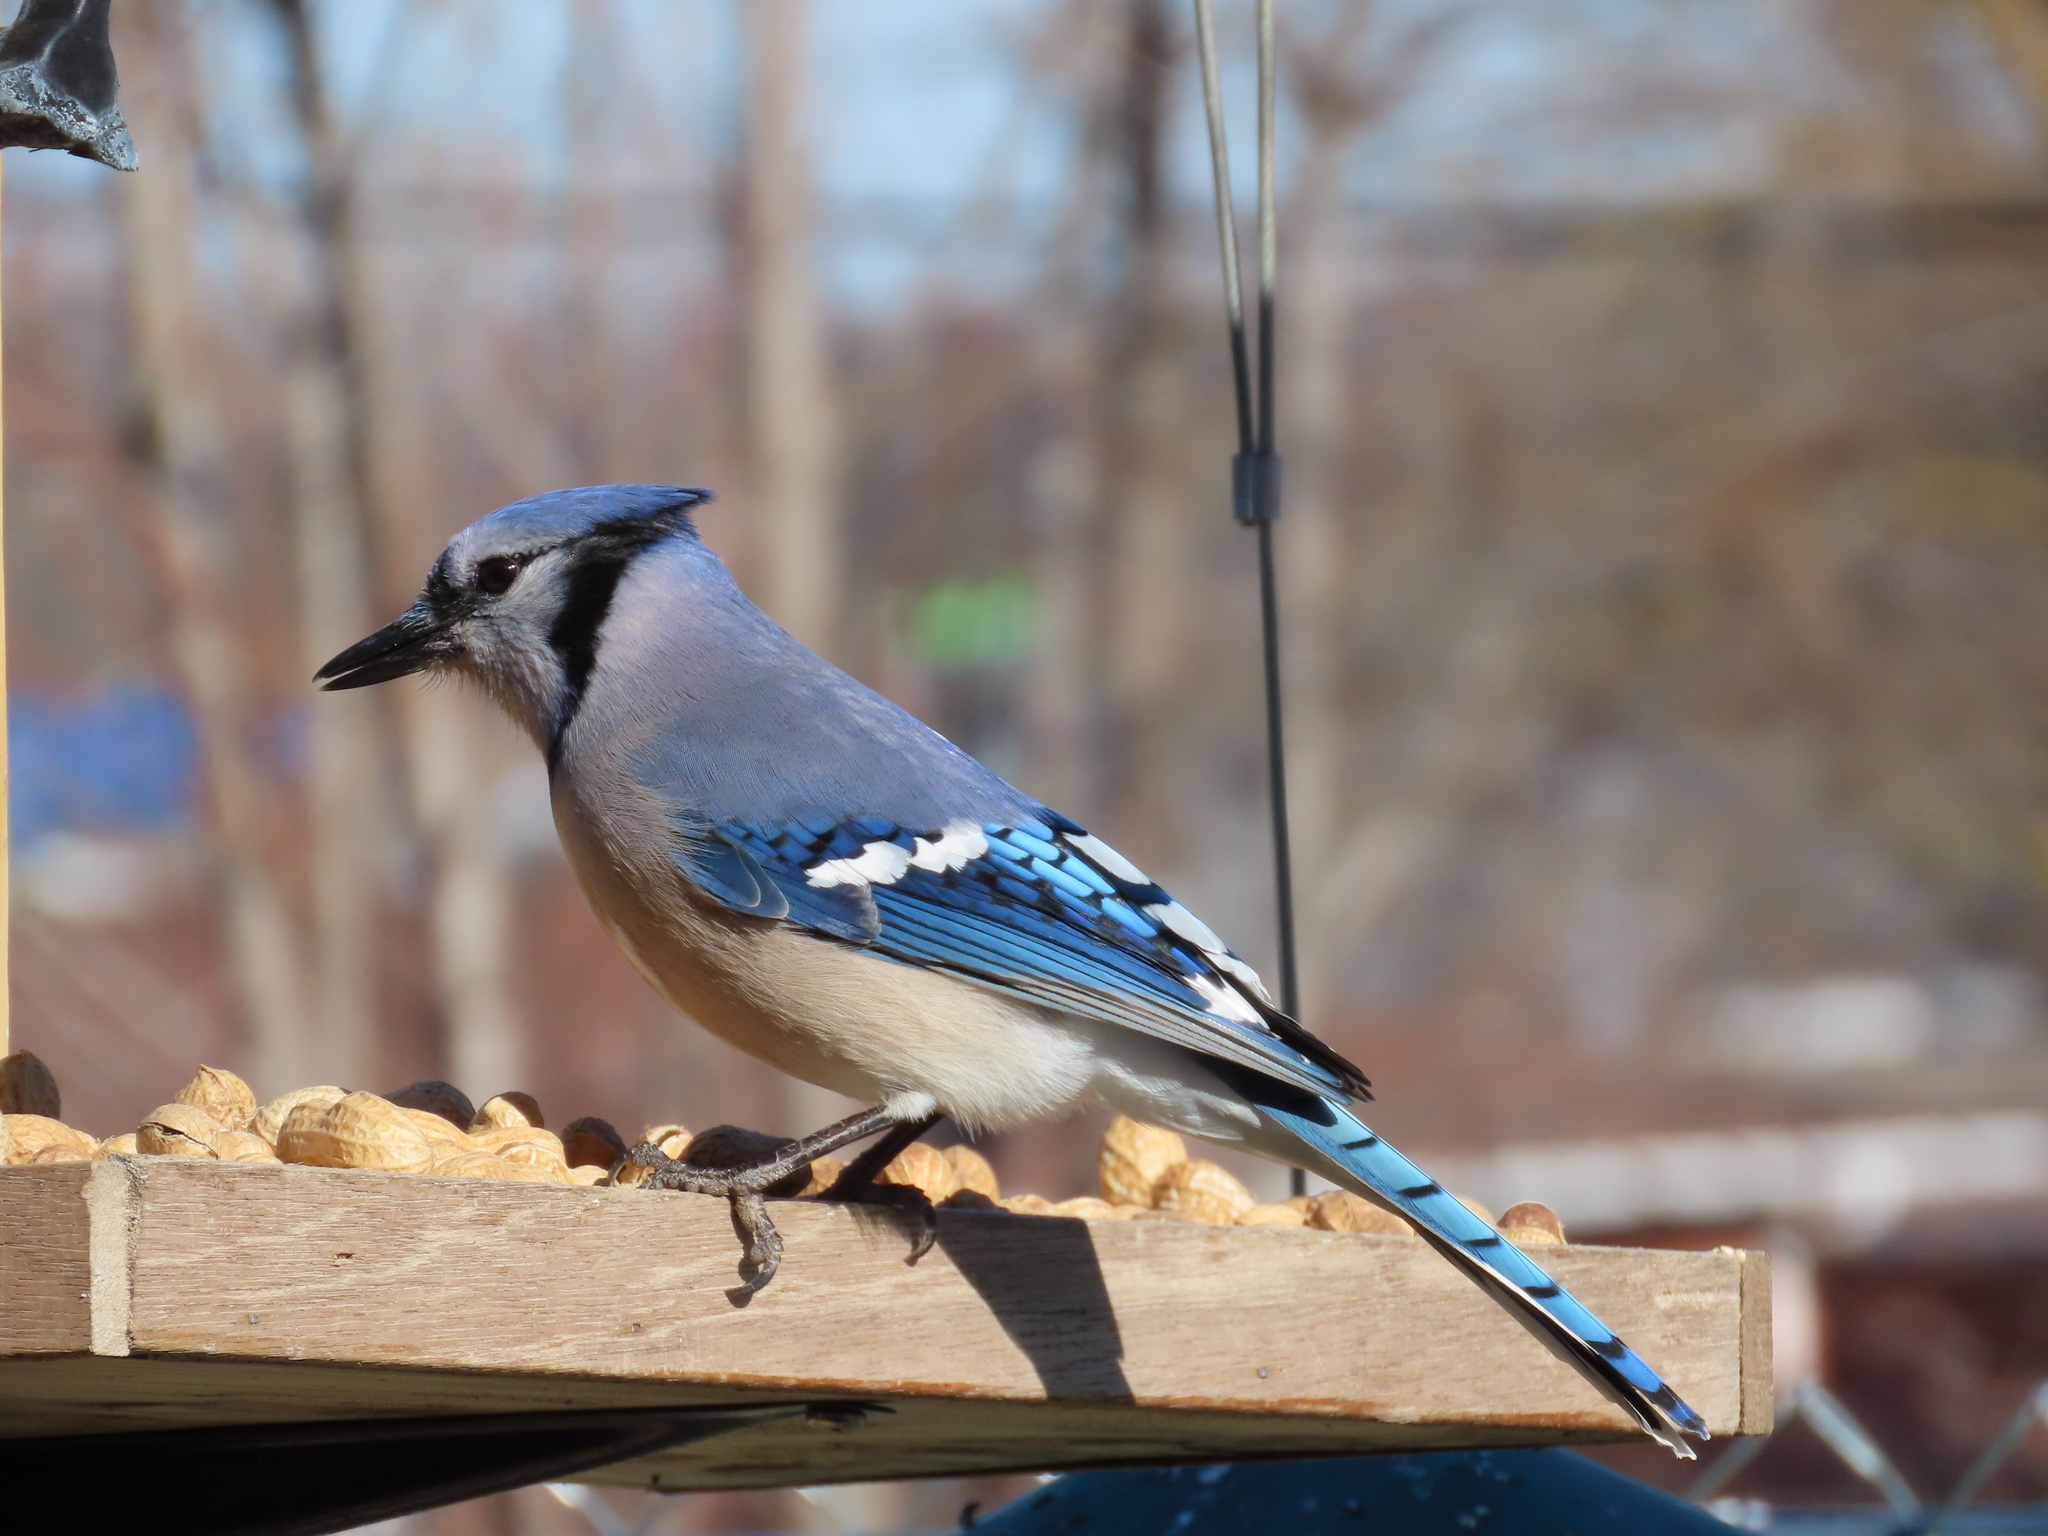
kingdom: Animalia
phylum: Chordata
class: Aves
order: Passeriformes
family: Corvidae
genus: Cyanocitta
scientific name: Cyanocitta cristata
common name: Blue jay
